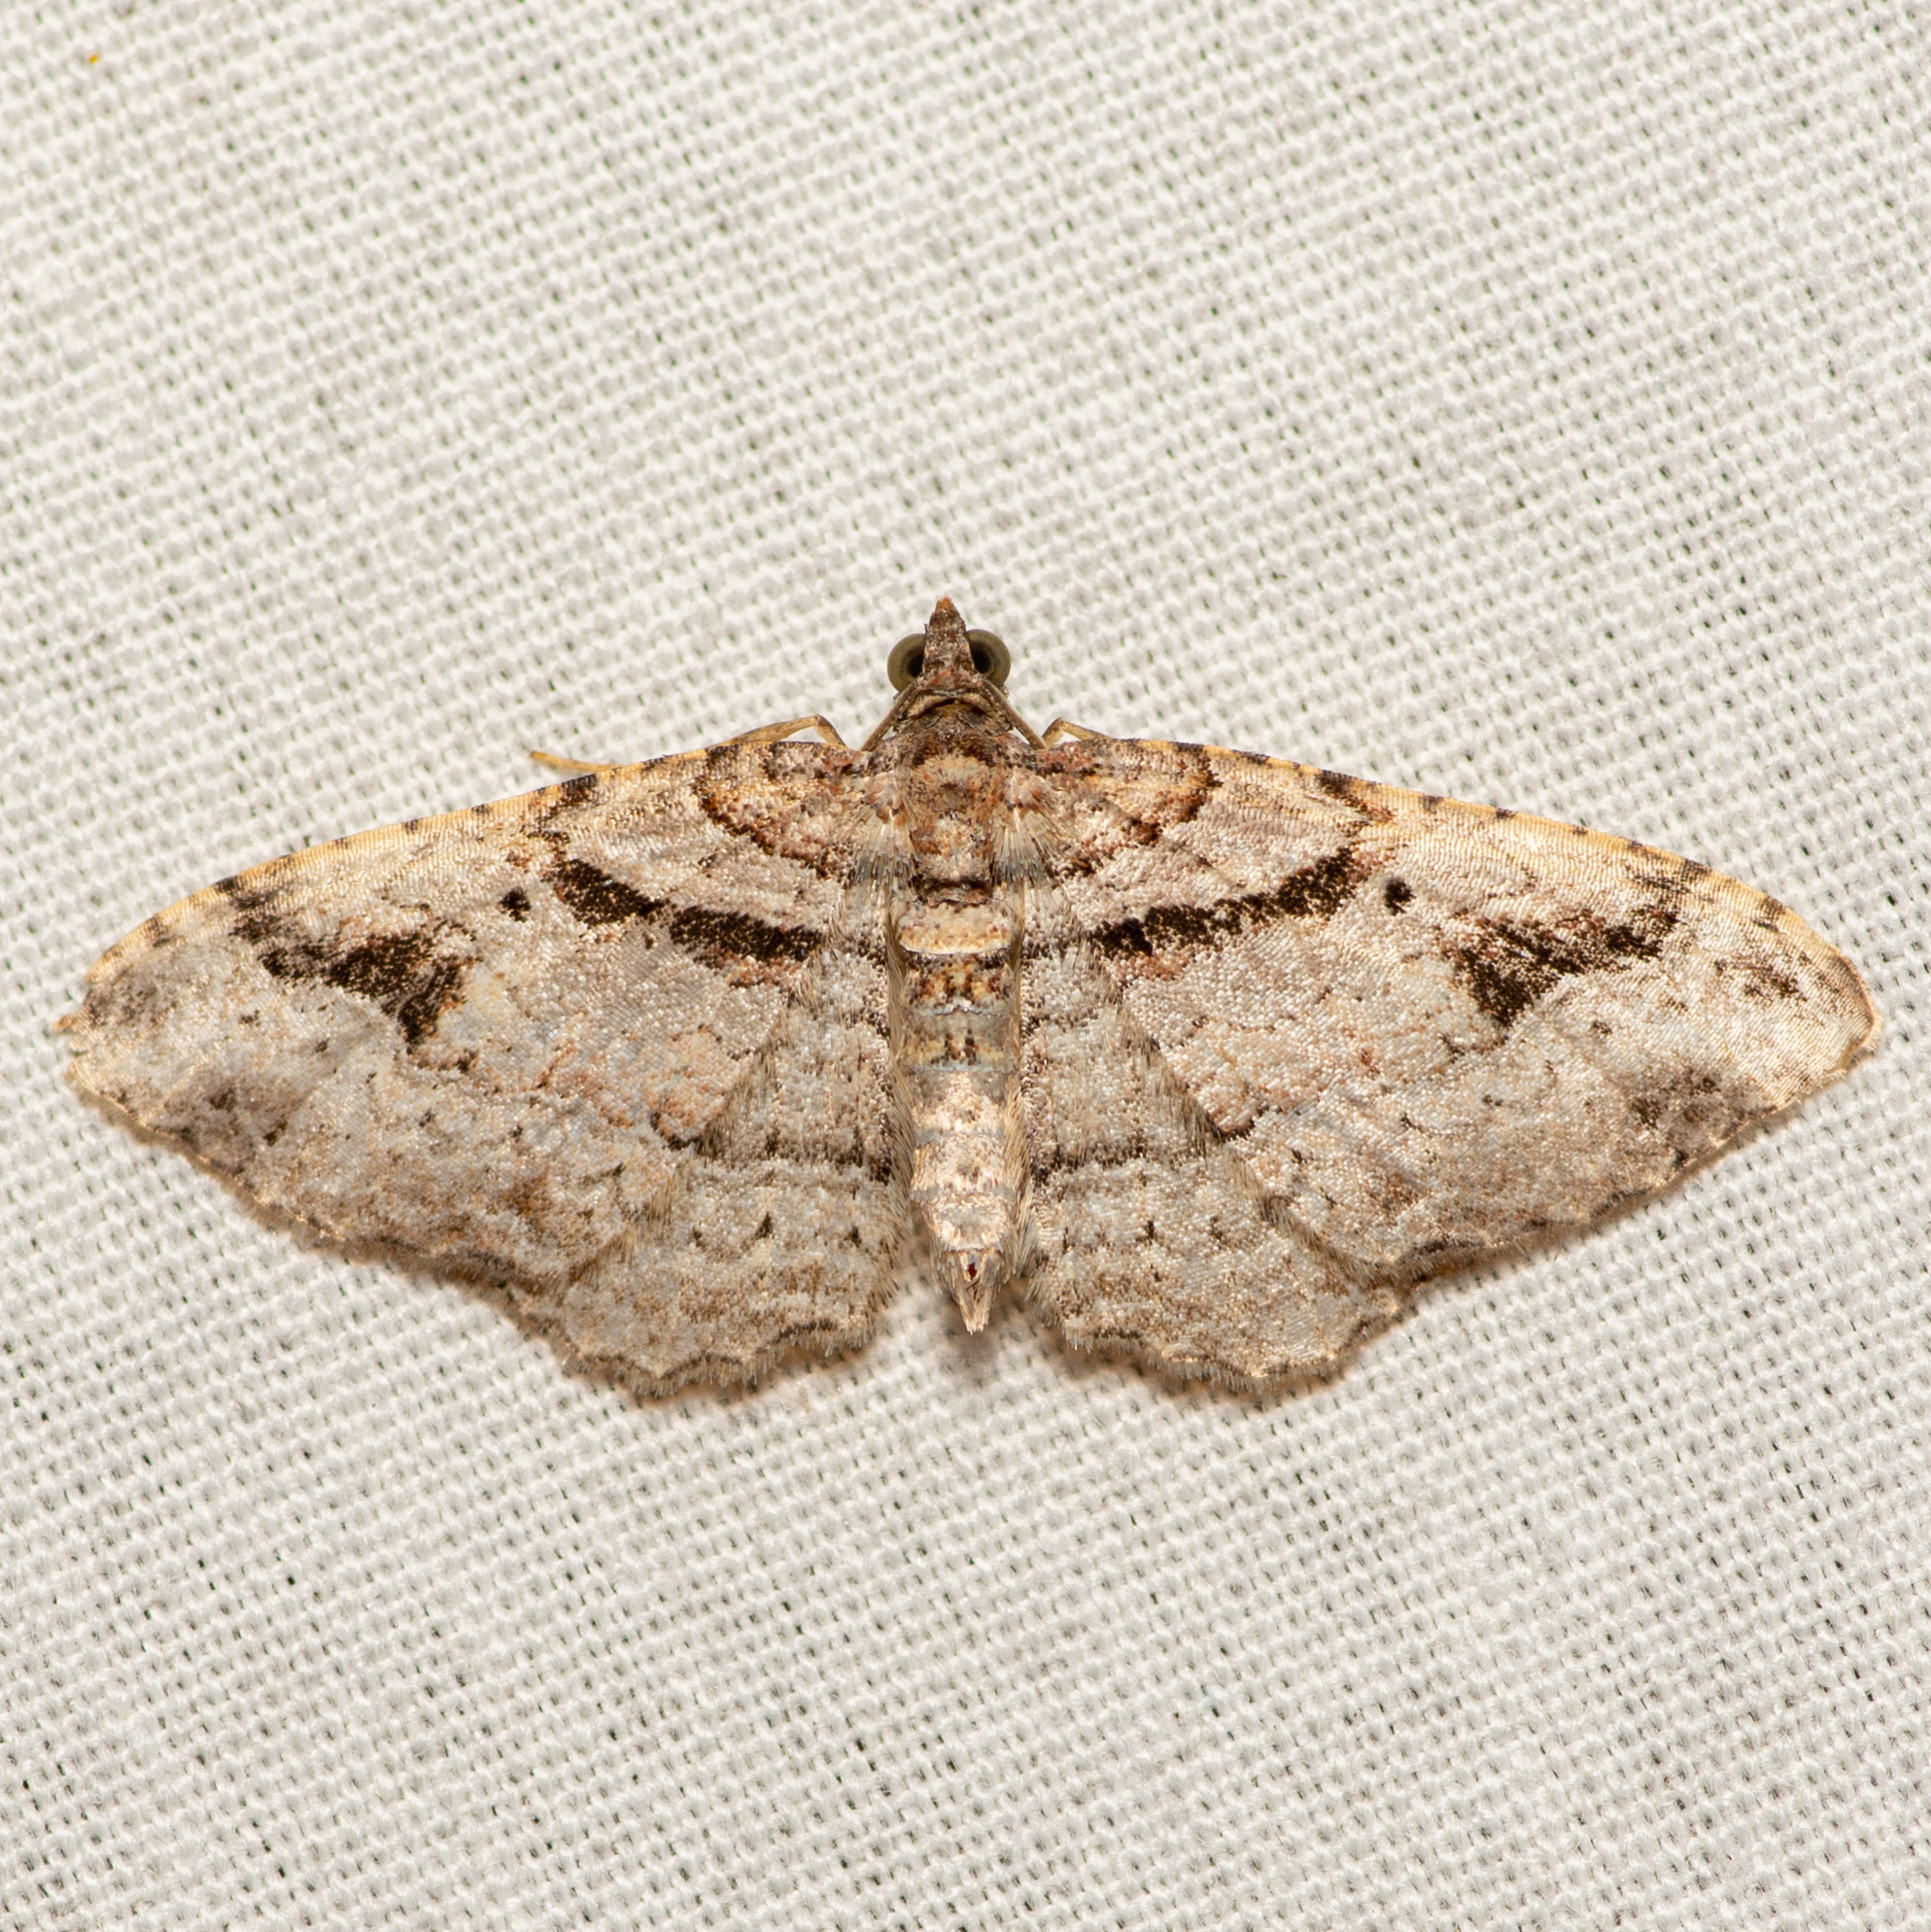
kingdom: Animalia
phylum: Arthropoda
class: Insecta
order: Lepidoptera
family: Geometridae
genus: Costaconvexa
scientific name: Costaconvexa centrostrigaria
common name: Bent-line carpet
